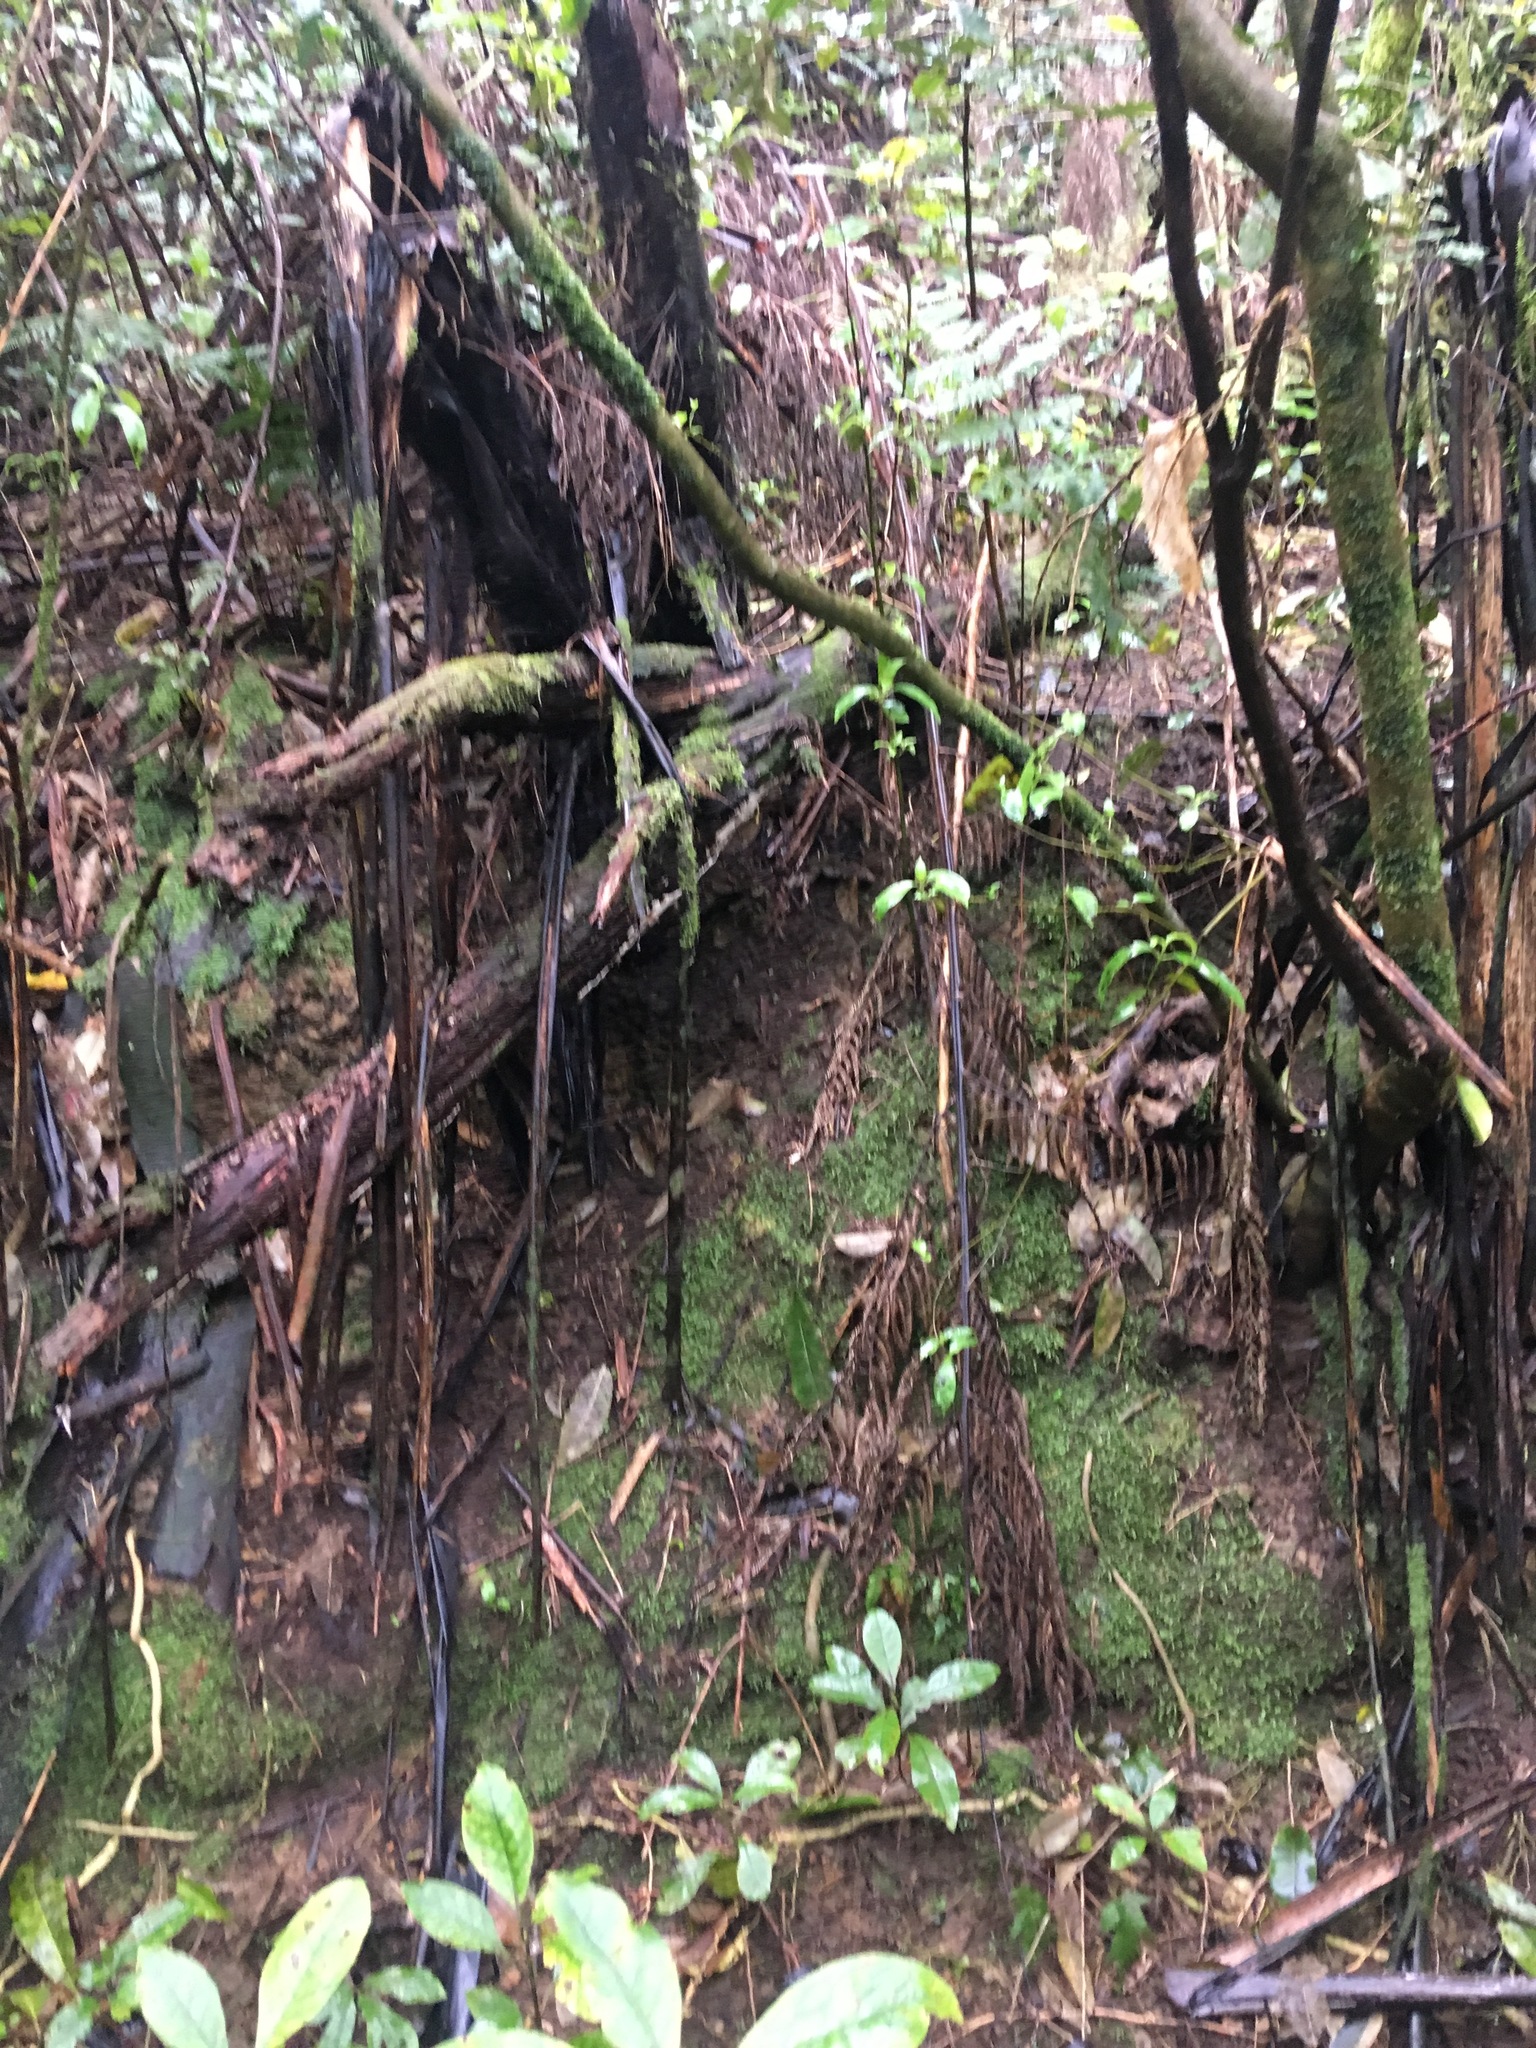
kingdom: Plantae
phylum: Tracheophyta
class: Magnoliopsida
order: Gentianales
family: Rubiaceae
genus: Coprosma
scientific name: Coprosma autumnalis
